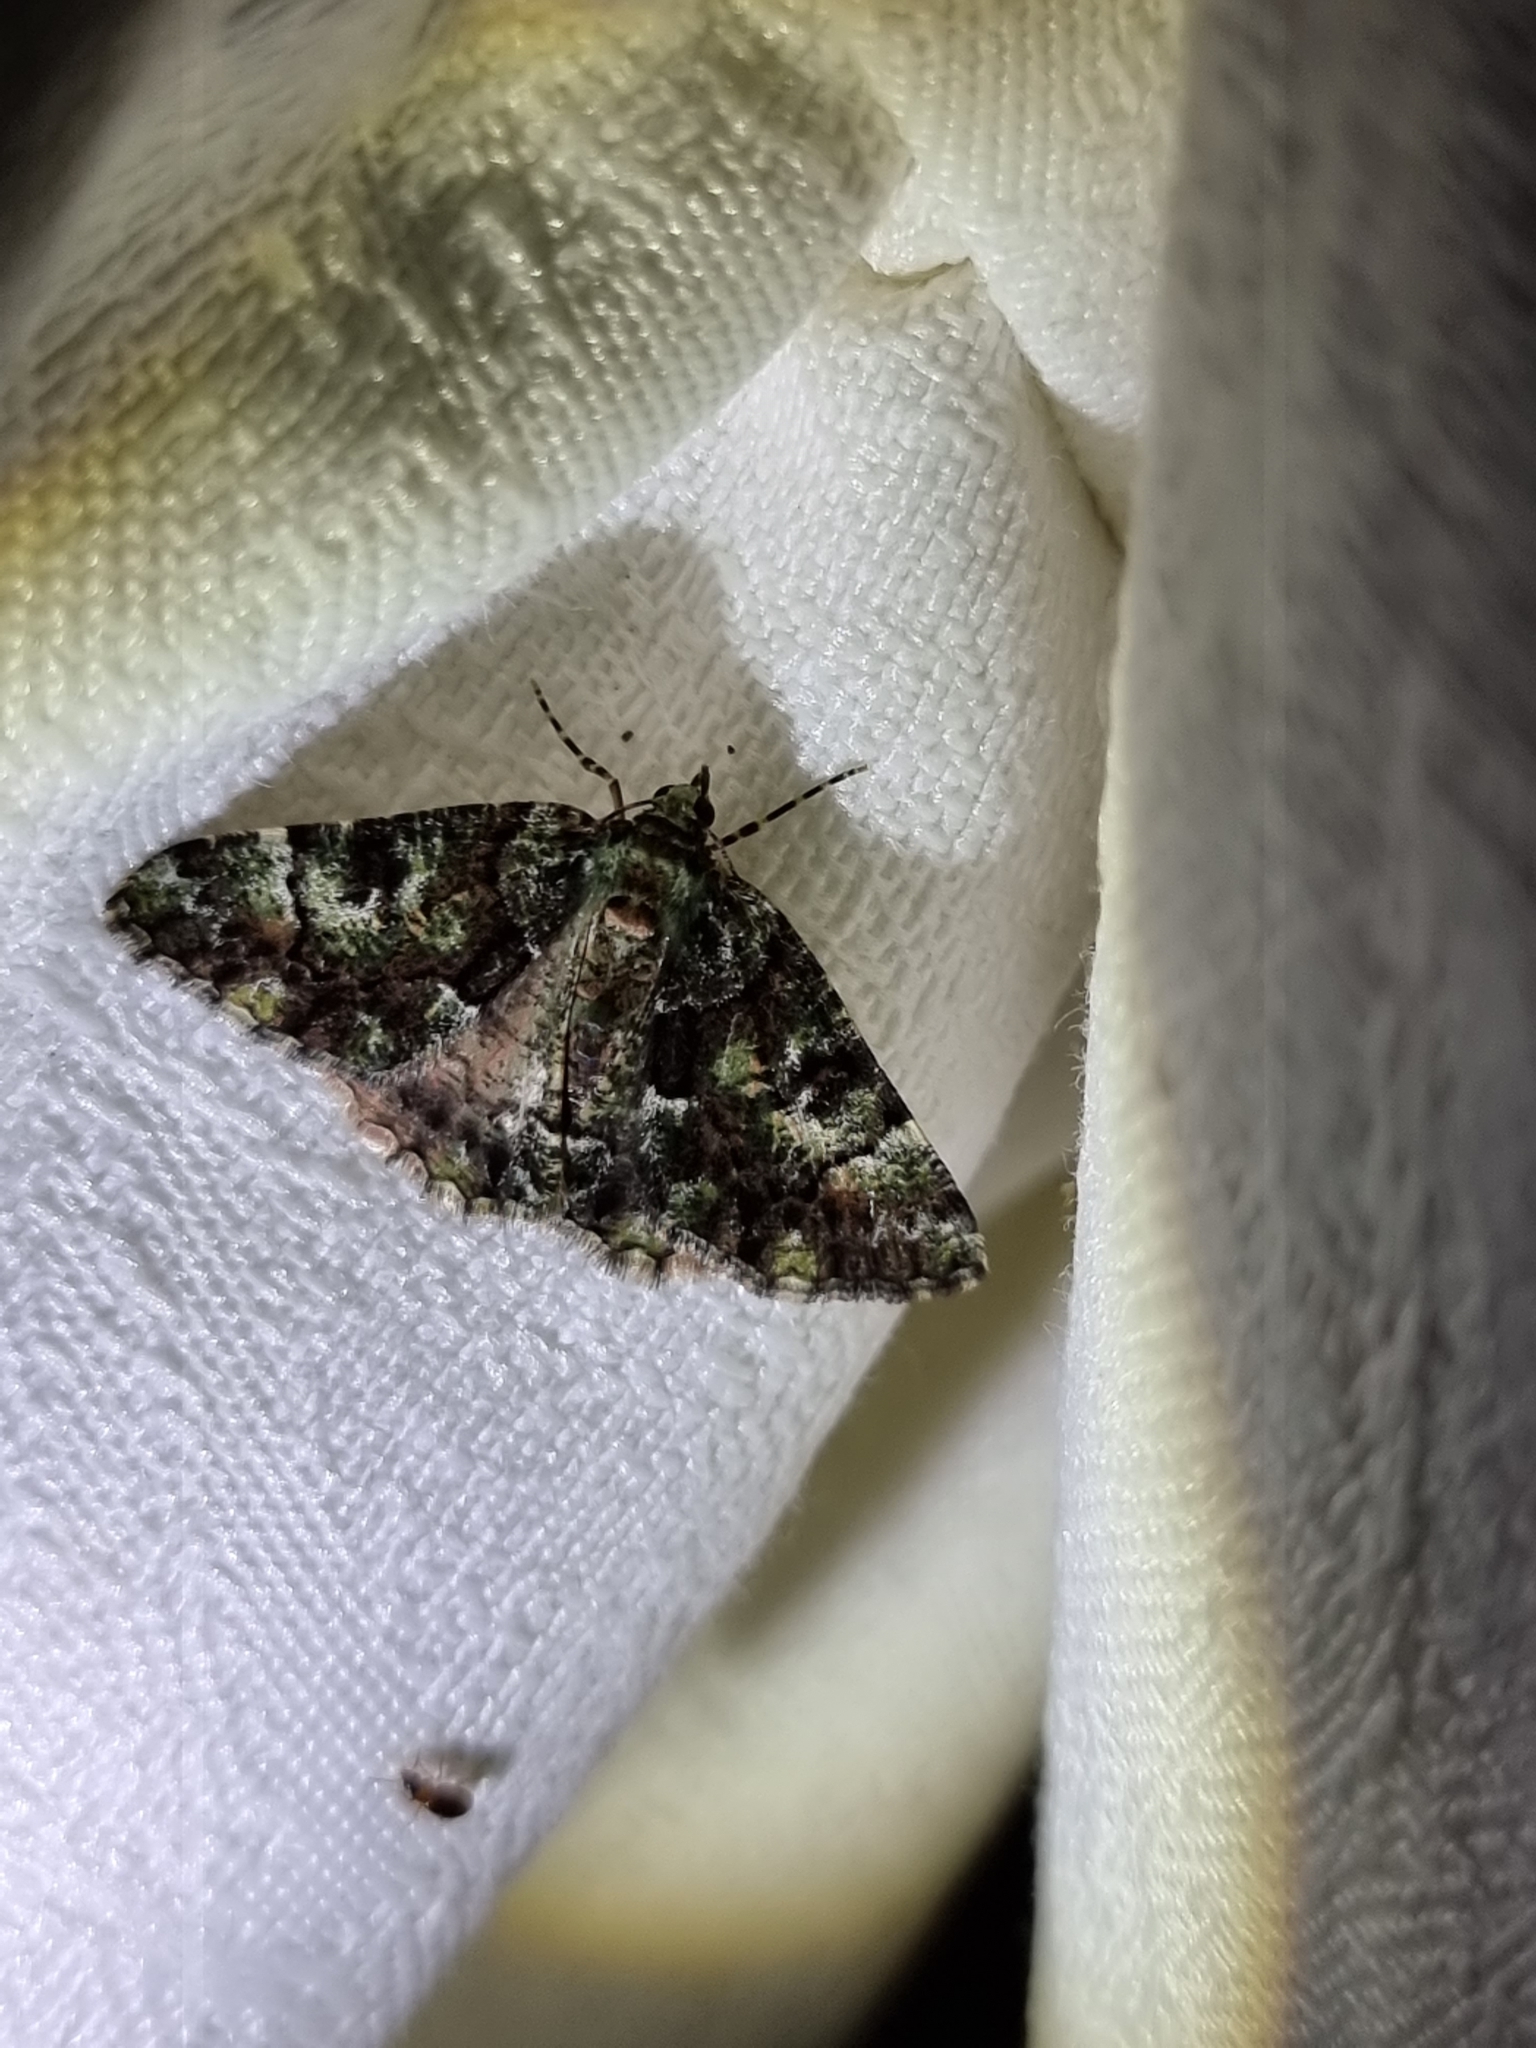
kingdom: Animalia
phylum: Arthropoda
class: Insecta
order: Lepidoptera
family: Geometridae
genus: Aeolochroma
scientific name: Aeolochroma metarhodata
